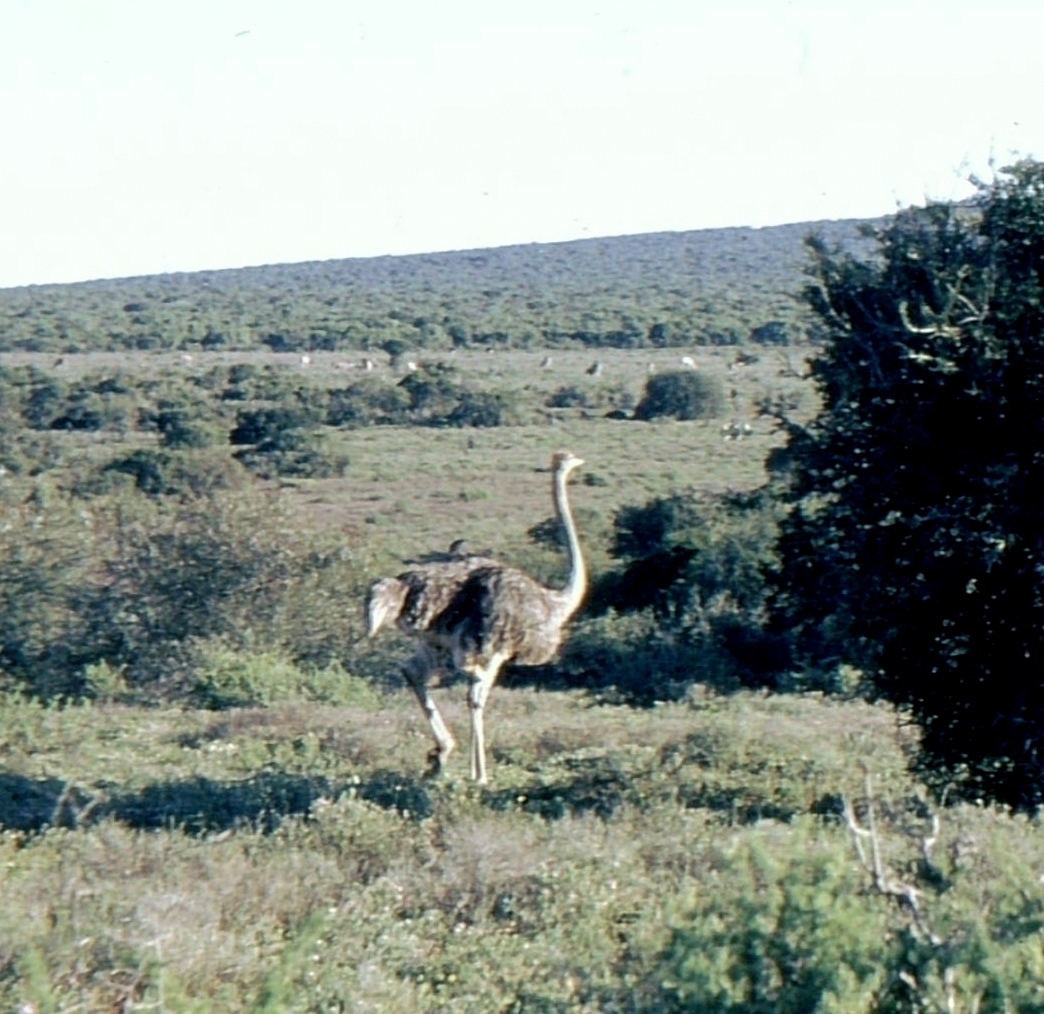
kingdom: Animalia
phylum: Chordata
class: Aves
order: Struthioniformes
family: Struthionidae
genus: Struthio
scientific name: Struthio camelus
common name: Common ostrich
